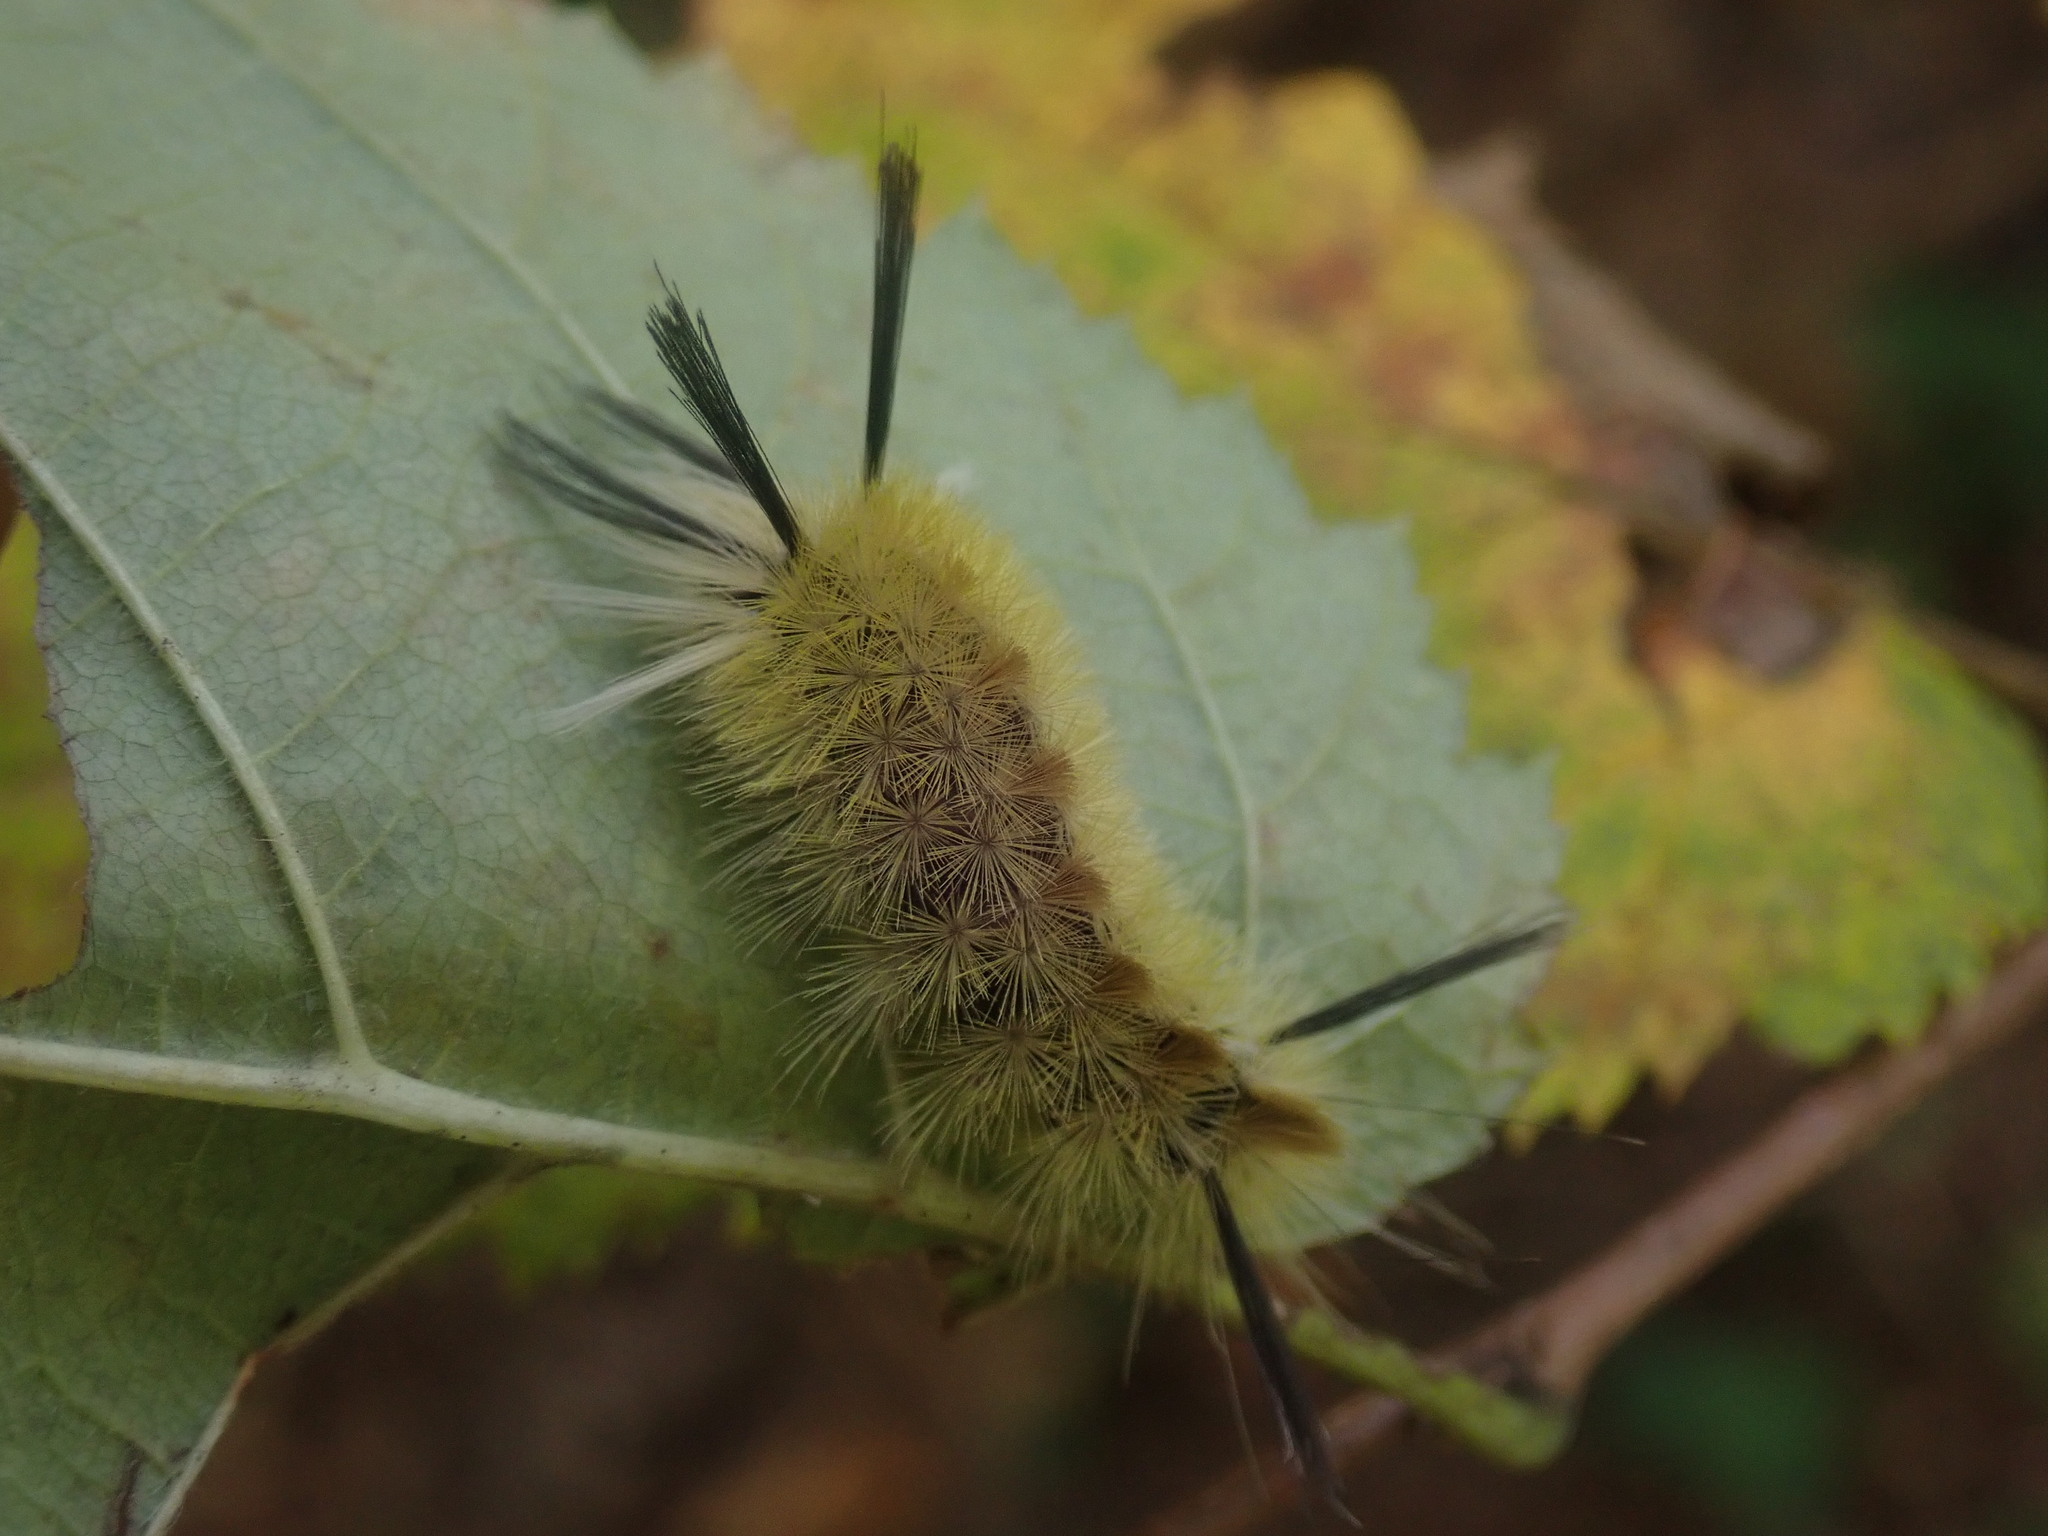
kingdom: Animalia
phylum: Arthropoda
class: Insecta
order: Lepidoptera
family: Erebidae
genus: Halysidota
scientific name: Halysidota tessellaris
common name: Banded tussock moth
